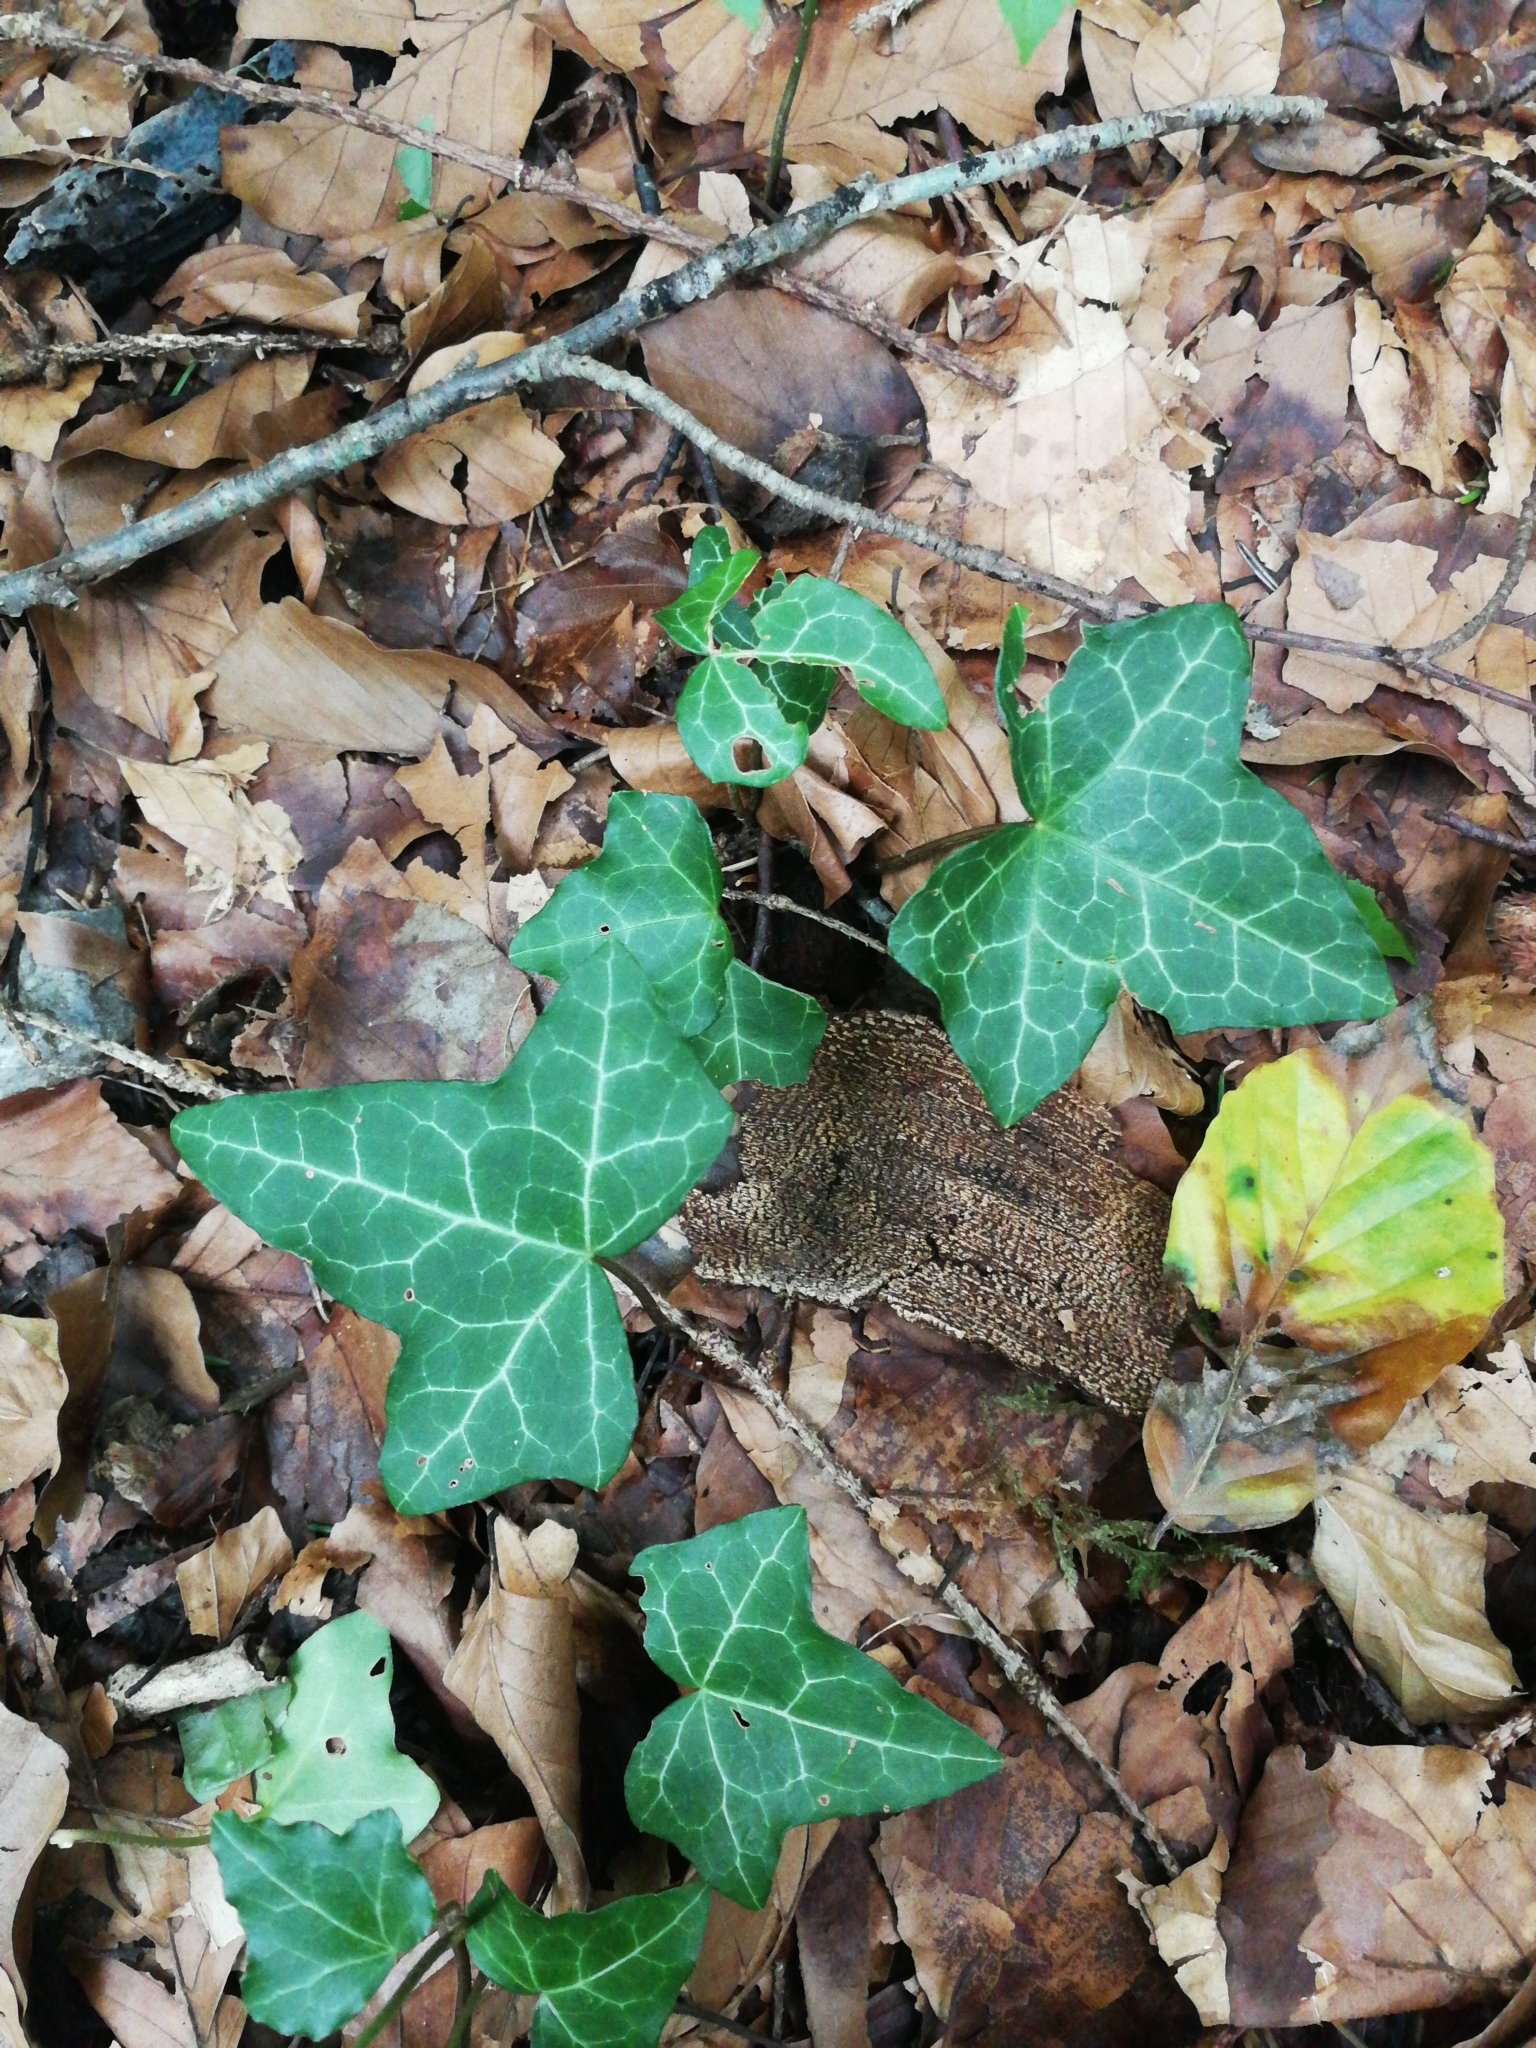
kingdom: Plantae
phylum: Tracheophyta
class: Magnoliopsida
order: Apiales
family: Araliaceae
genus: Hedera
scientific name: Hedera helix
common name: Ivy
